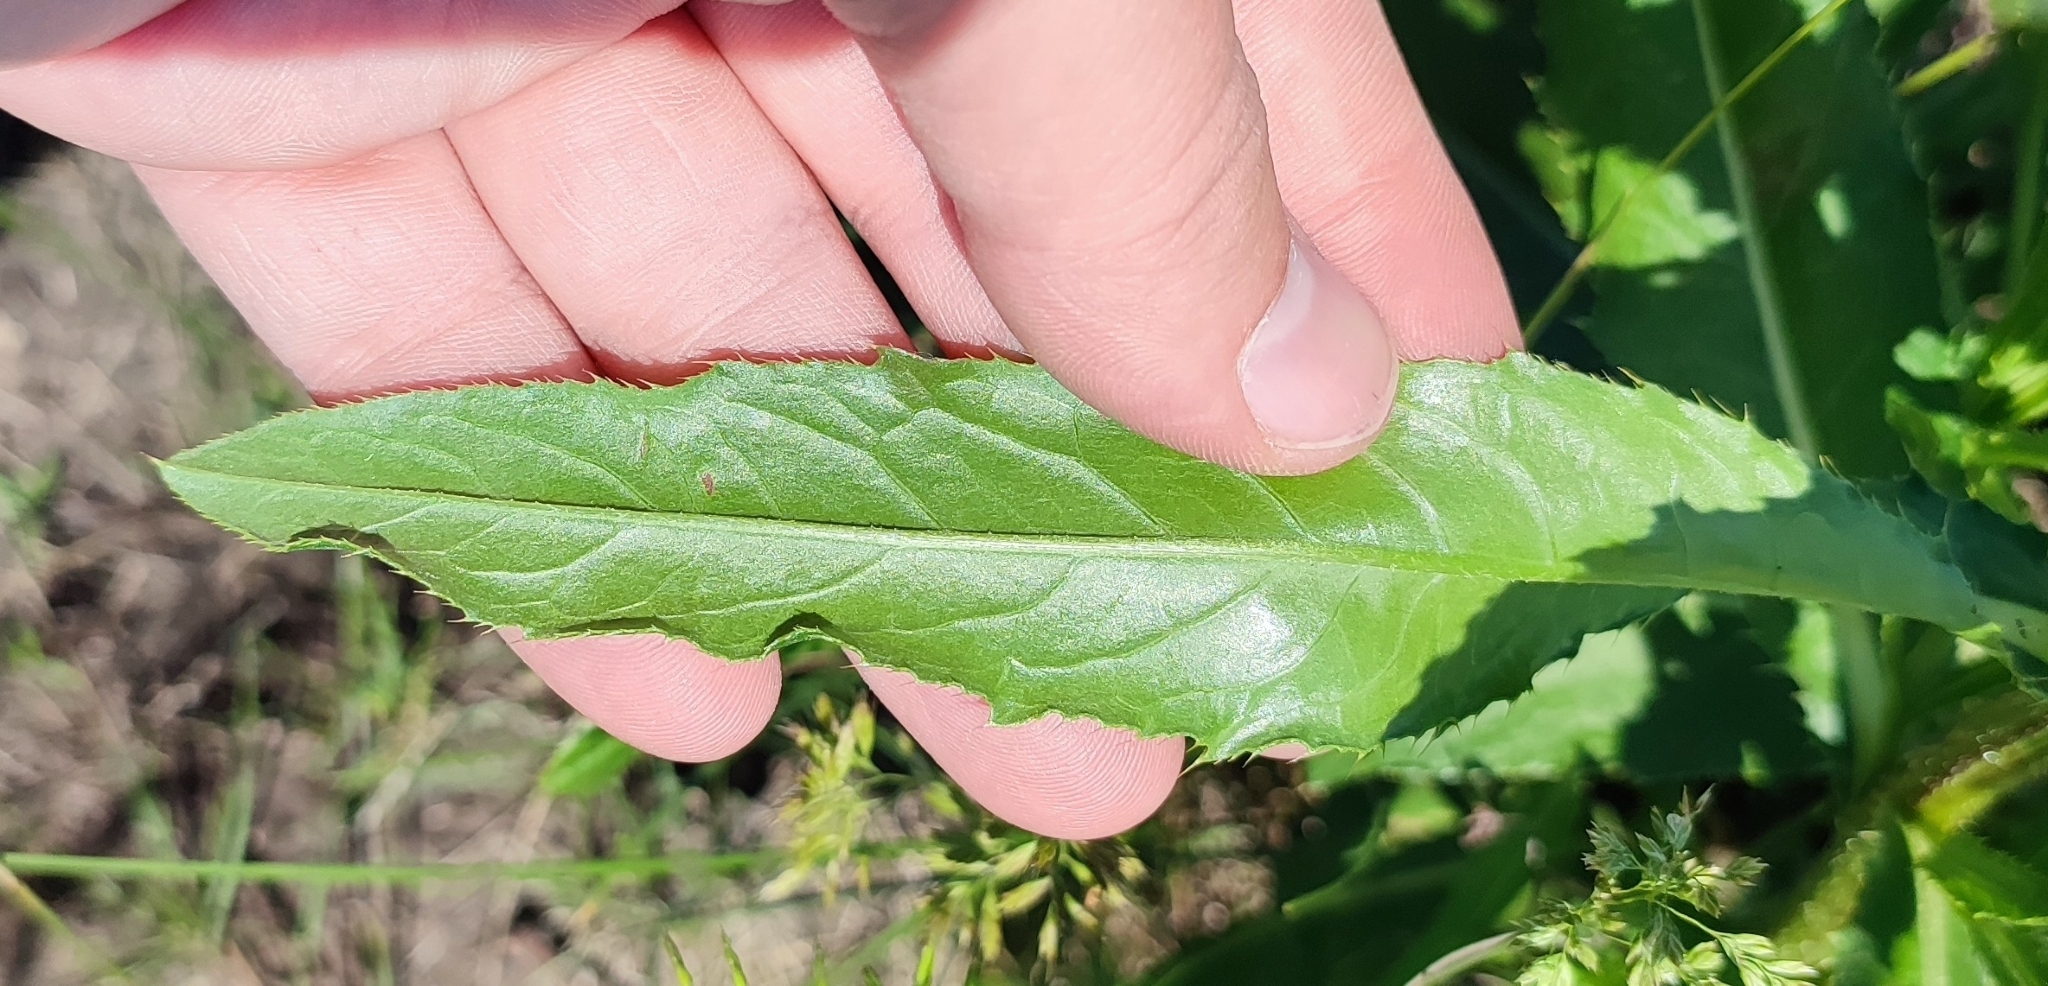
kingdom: Plantae
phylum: Tracheophyta
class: Magnoliopsida
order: Asterales
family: Asteraceae
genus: Cirsium
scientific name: Cirsium arvense
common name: Creeping thistle
